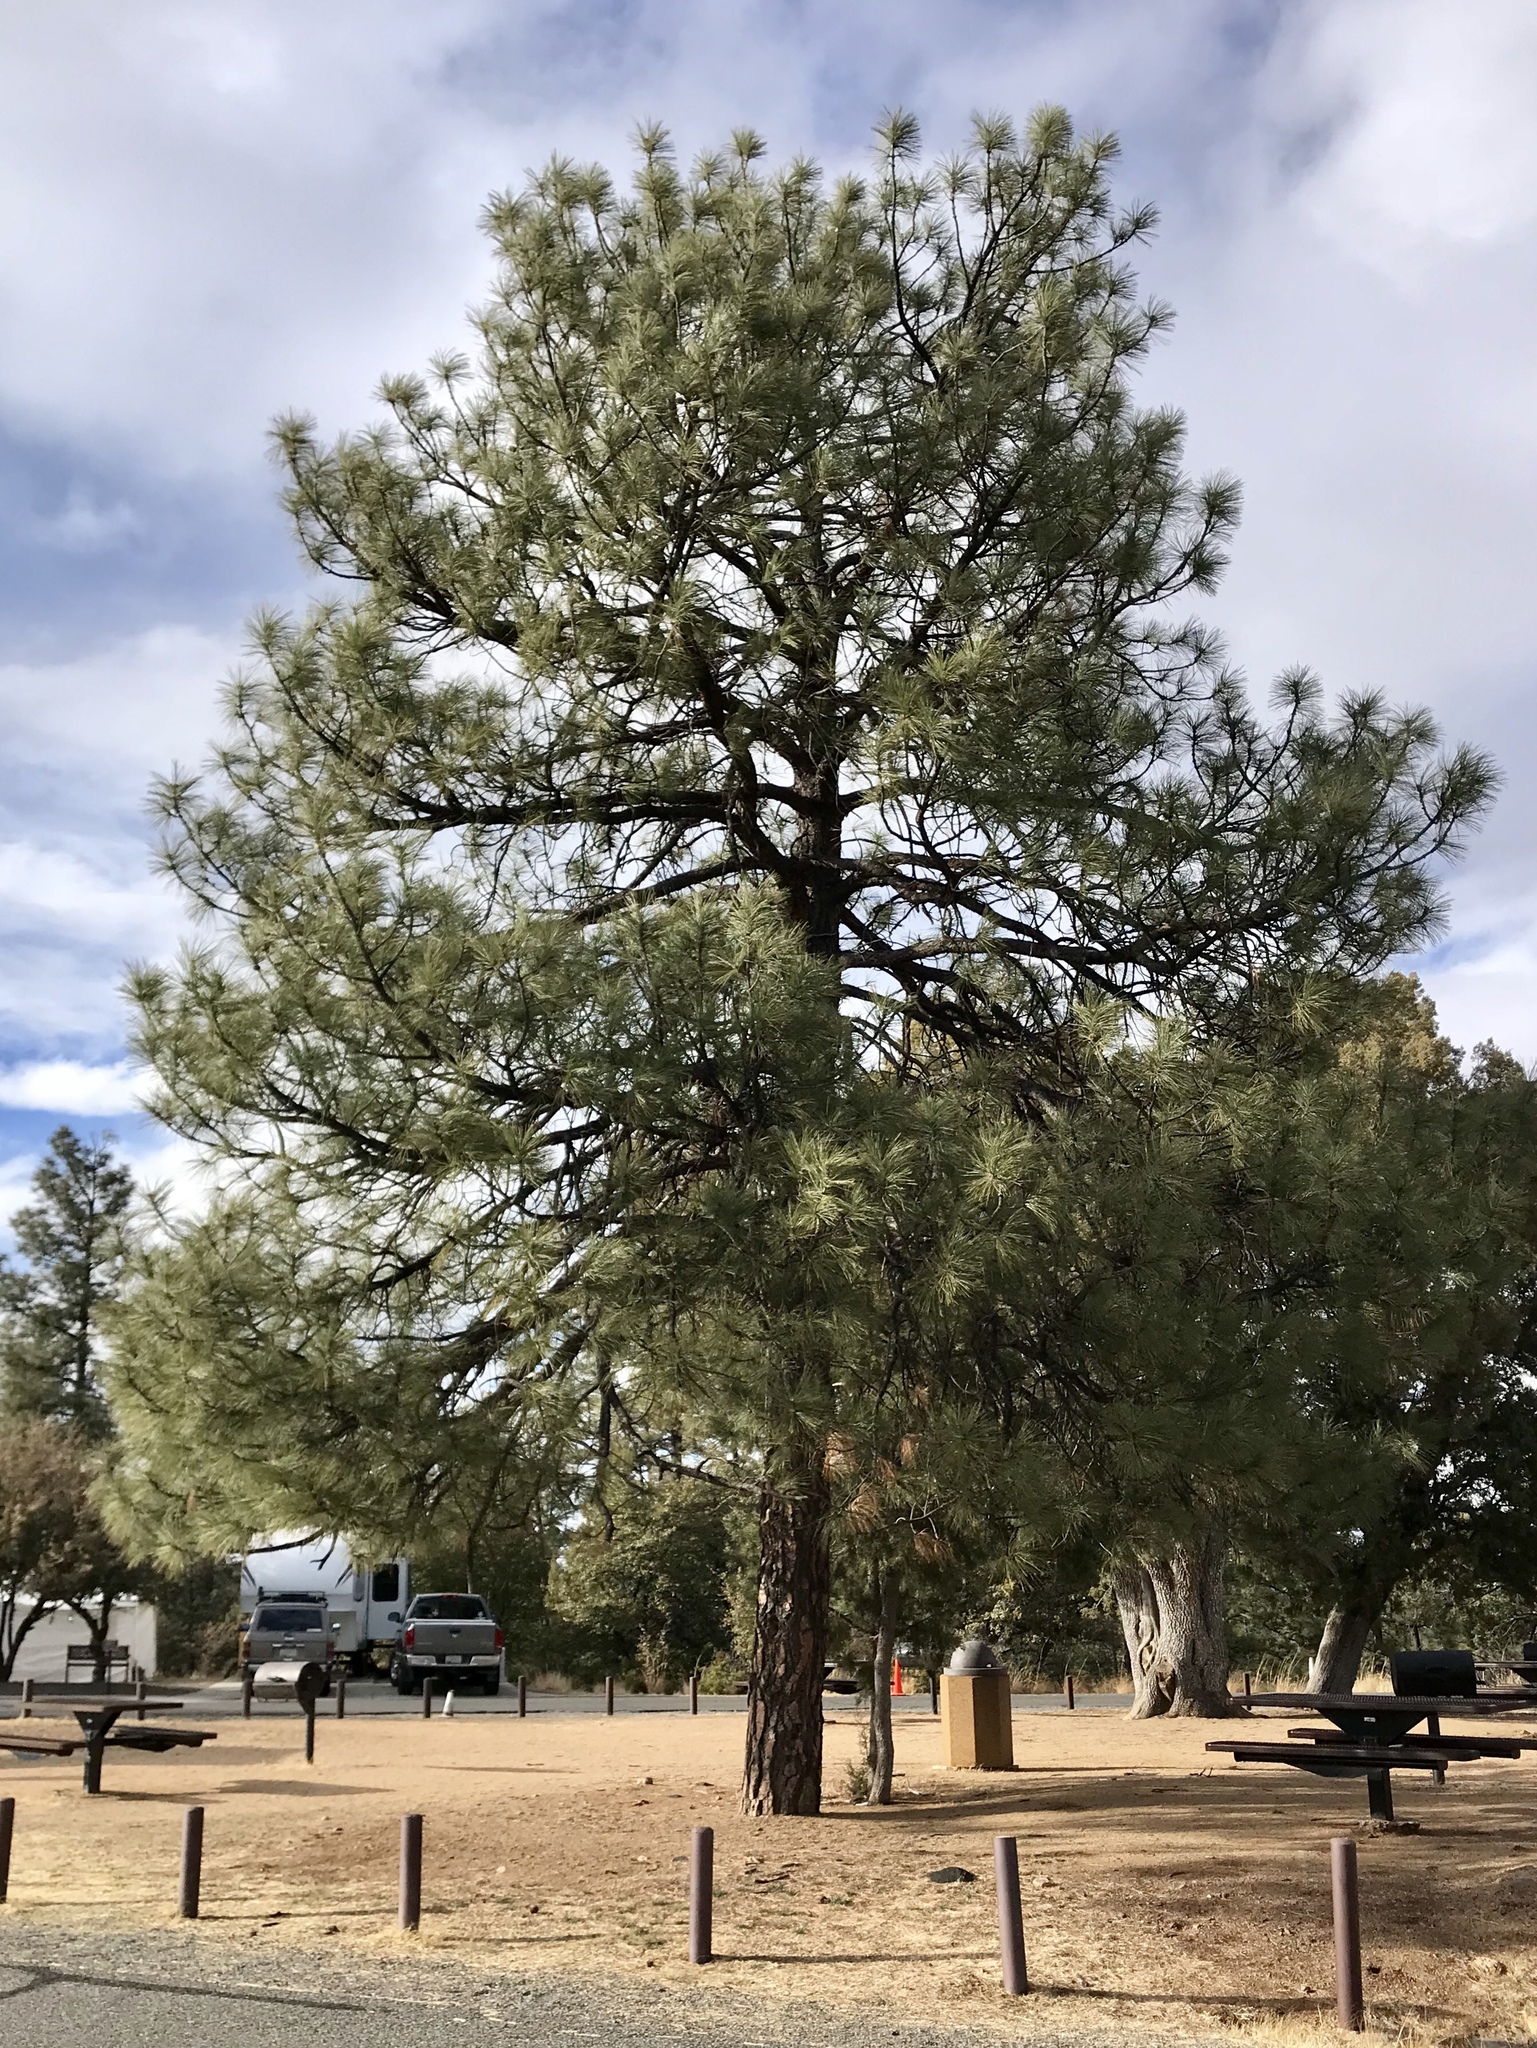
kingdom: Plantae
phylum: Tracheophyta
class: Pinopsida
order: Pinales
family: Pinaceae
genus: Pinus
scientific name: Pinus ponderosa
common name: Western yellow-pine
